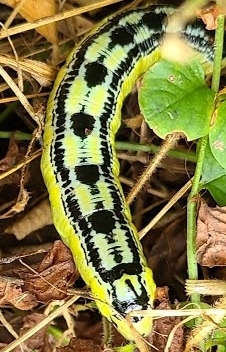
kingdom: Animalia
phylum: Arthropoda
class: Insecta
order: Lepidoptera
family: Sphingidae
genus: Ceratomia
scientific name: Ceratomia catalpae
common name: Catalpa hornworm
